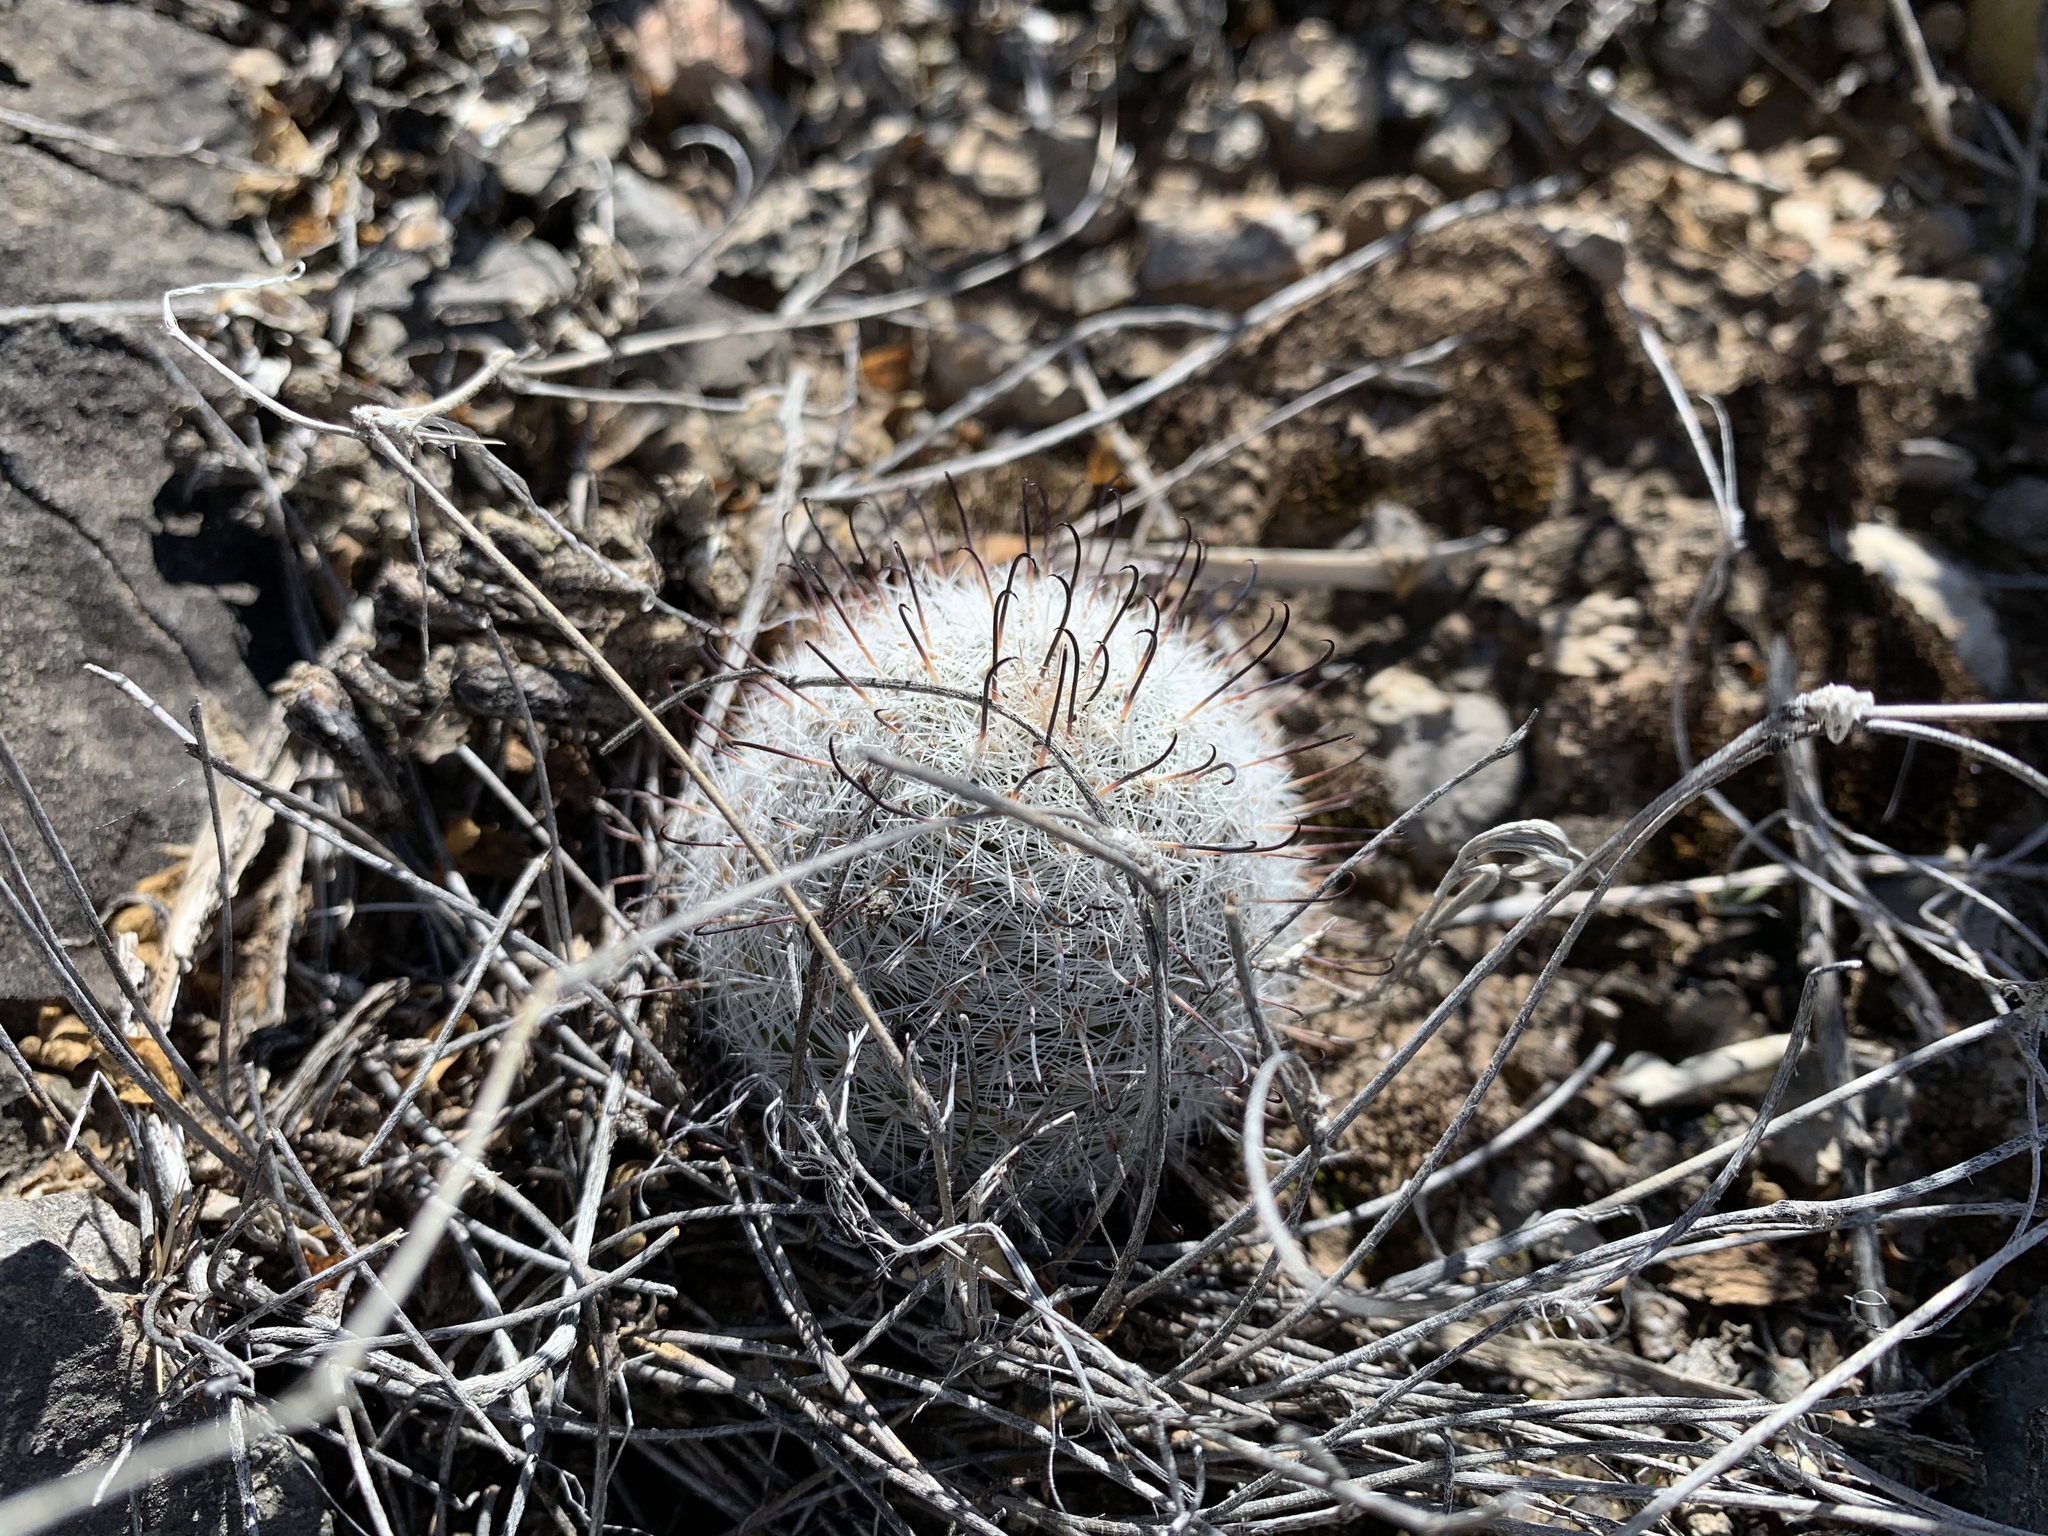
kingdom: Plantae
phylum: Tracheophyta
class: Magnoliopsida
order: Caryophyllales
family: Cactaceae
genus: Cochemiea
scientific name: Cochemiea grahamii
